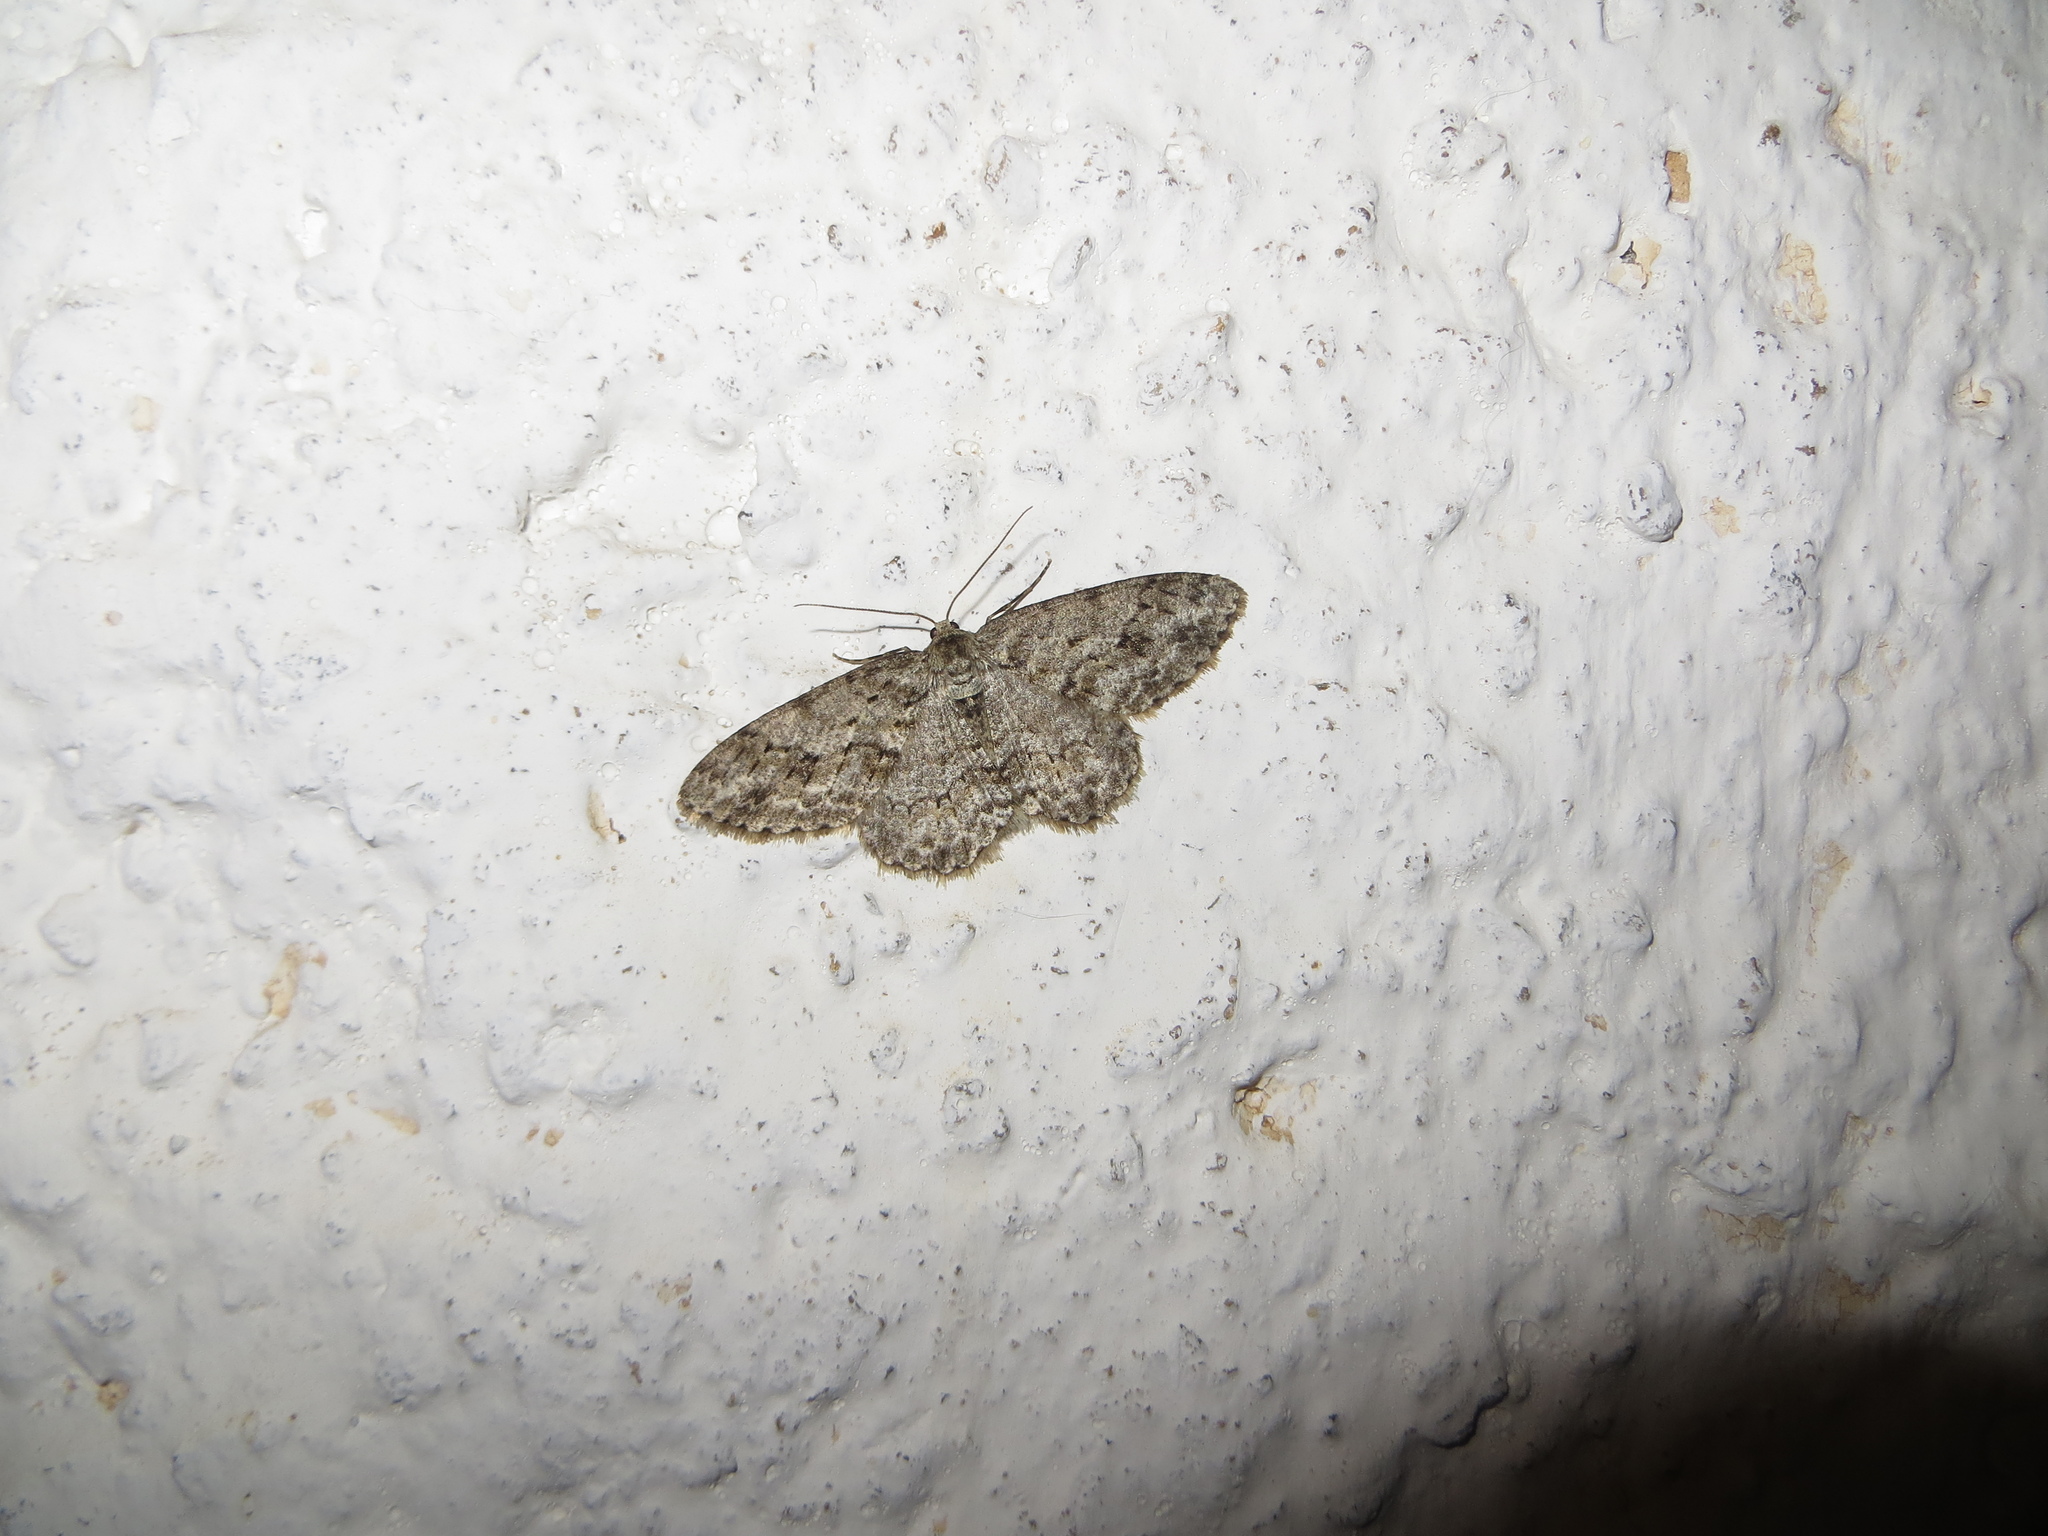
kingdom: Animalia
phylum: Arthropoda
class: Insecta
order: Lepidoptera
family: Geometridae
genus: Ectropis
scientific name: Ectropis crepuscularia
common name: Engrailed
